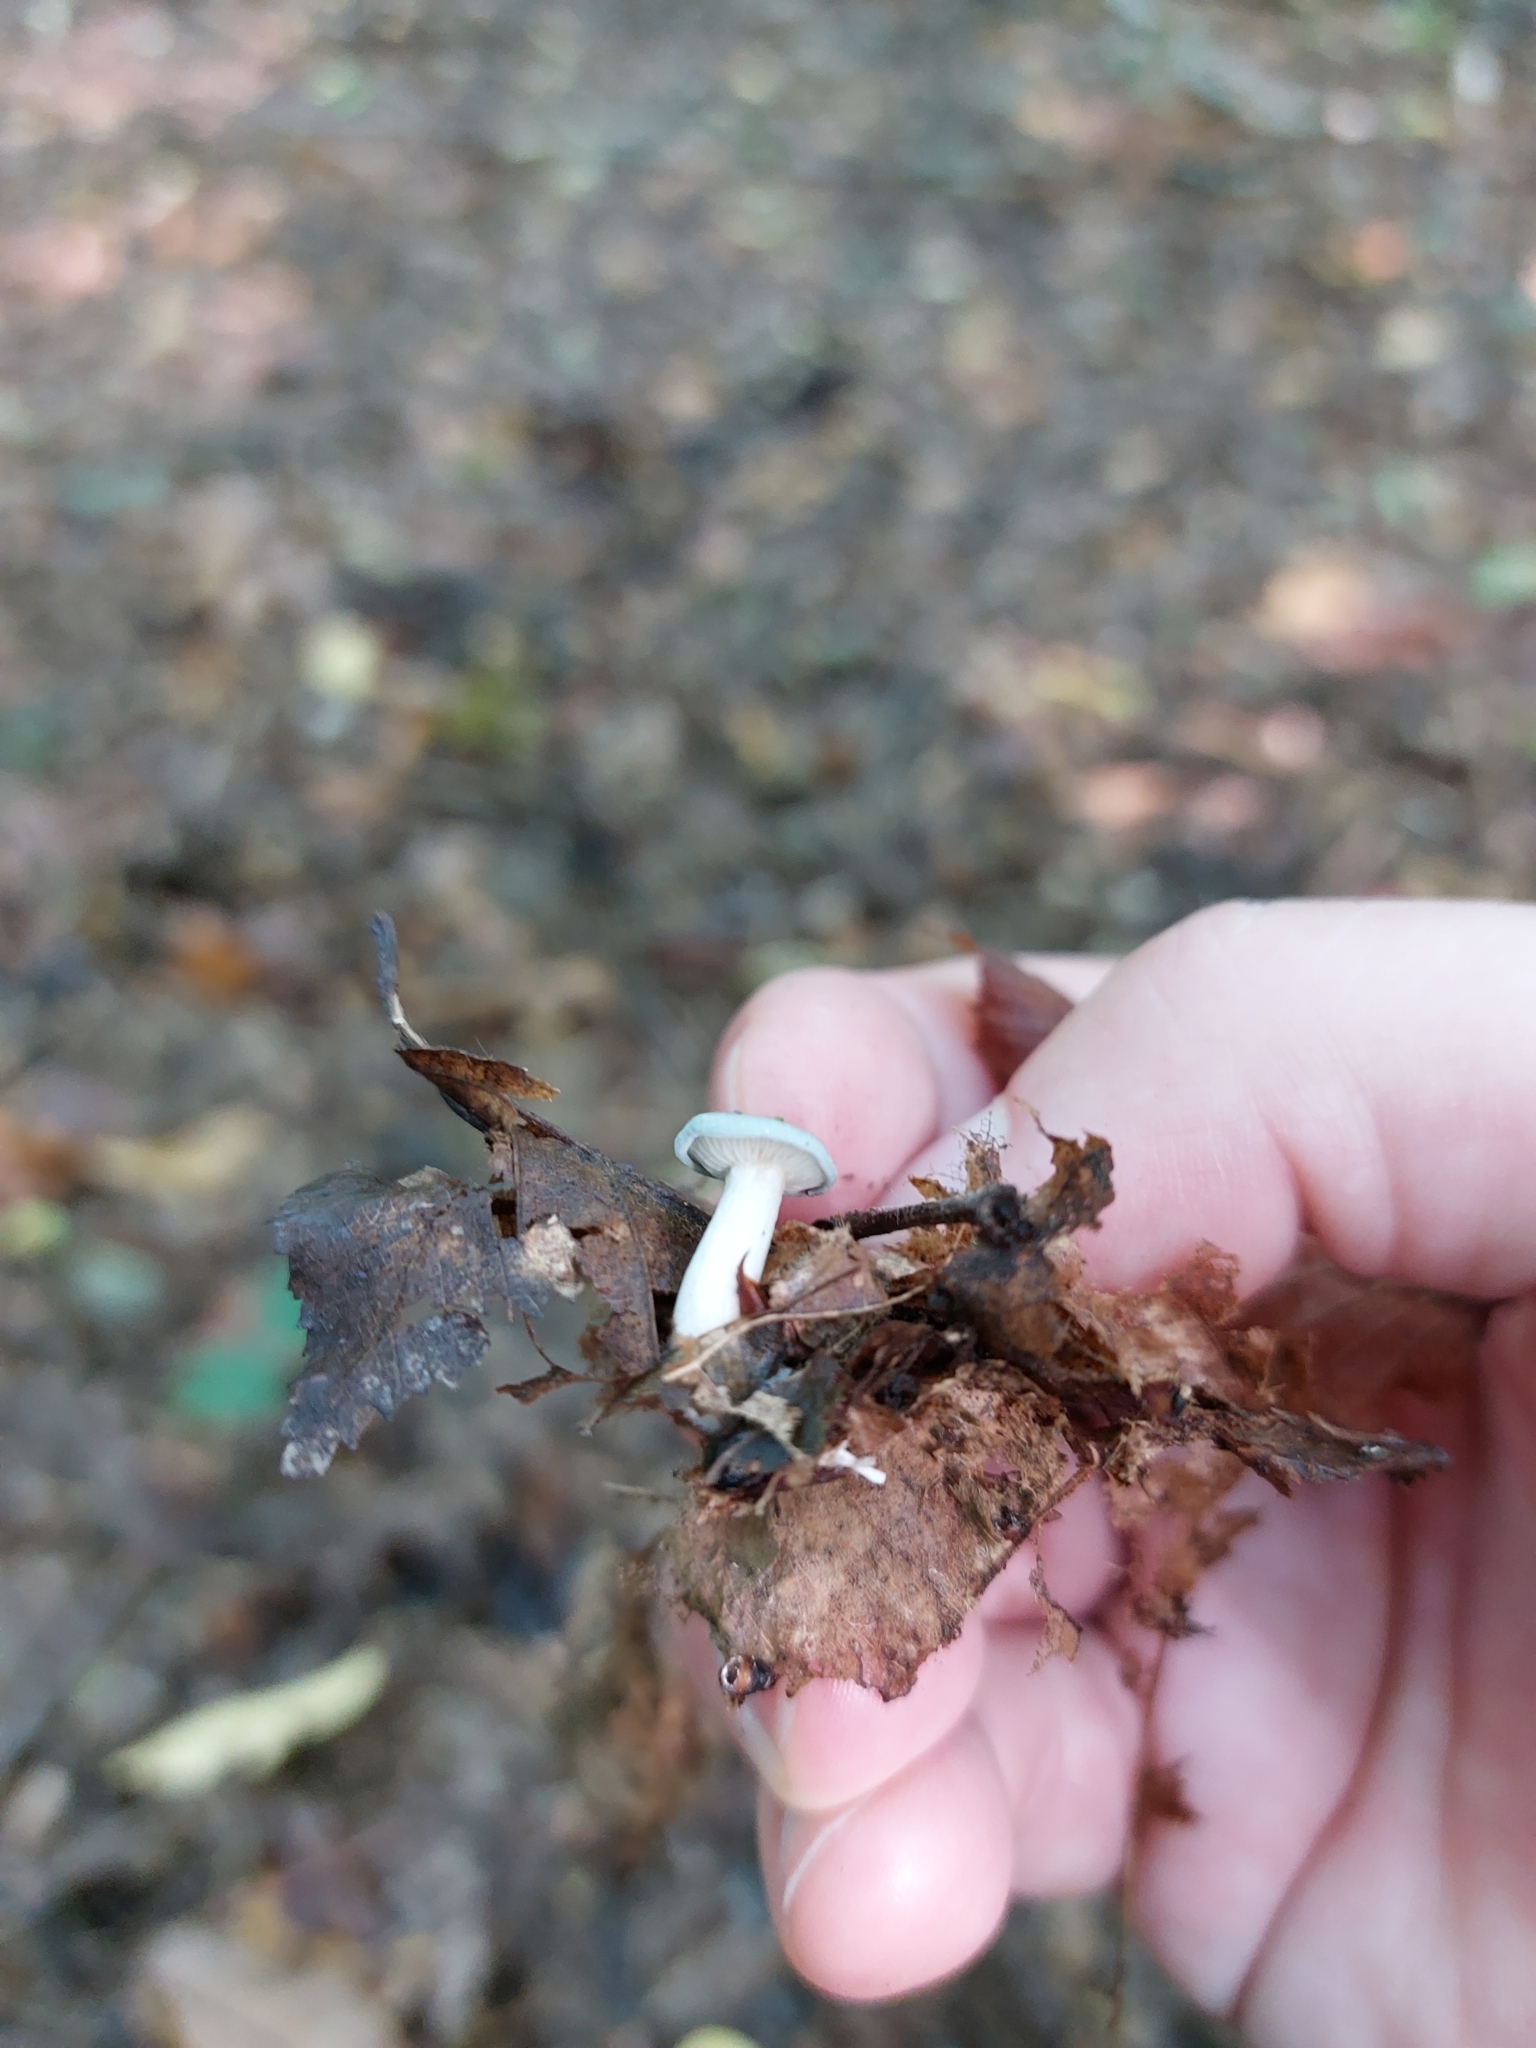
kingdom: Fungi
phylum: Basidiomycota
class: Agaricomycetes
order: Agaricales
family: Tricholomataceae
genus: Collybia
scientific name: Collybia
